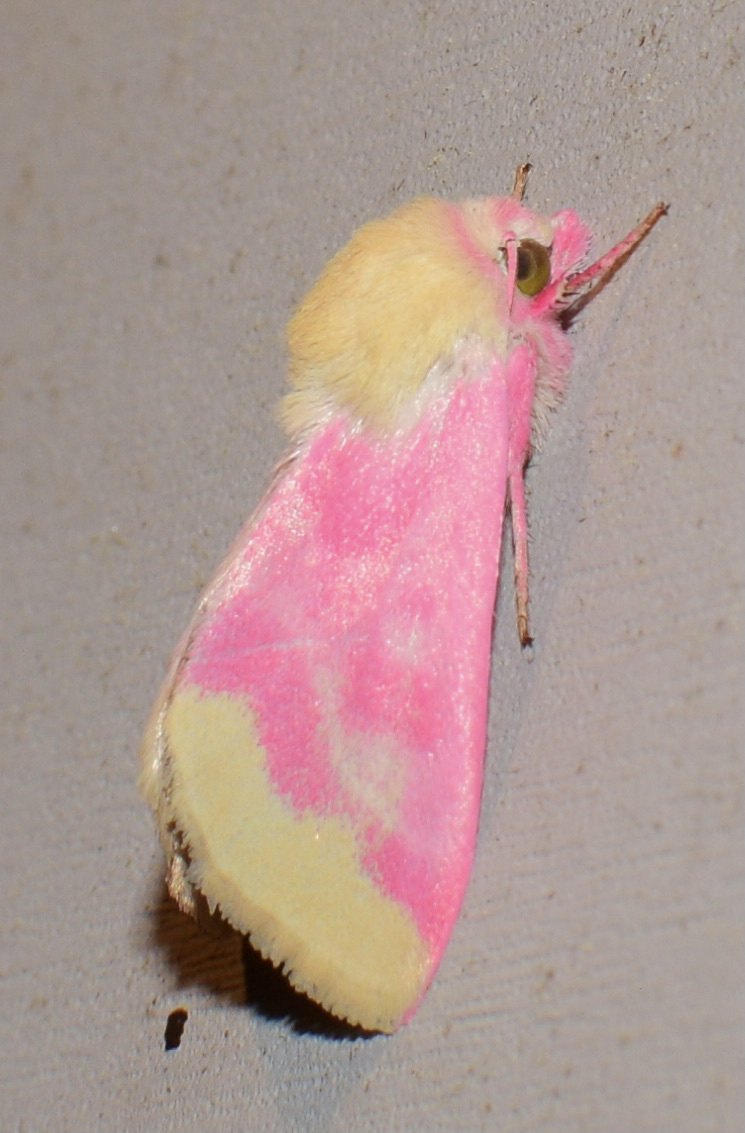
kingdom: Animalia
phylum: Arthropoda
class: Insecta
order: Lepidoptera
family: Noctuidae
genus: Schinia
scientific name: Schinia florida
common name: Primrose moth
